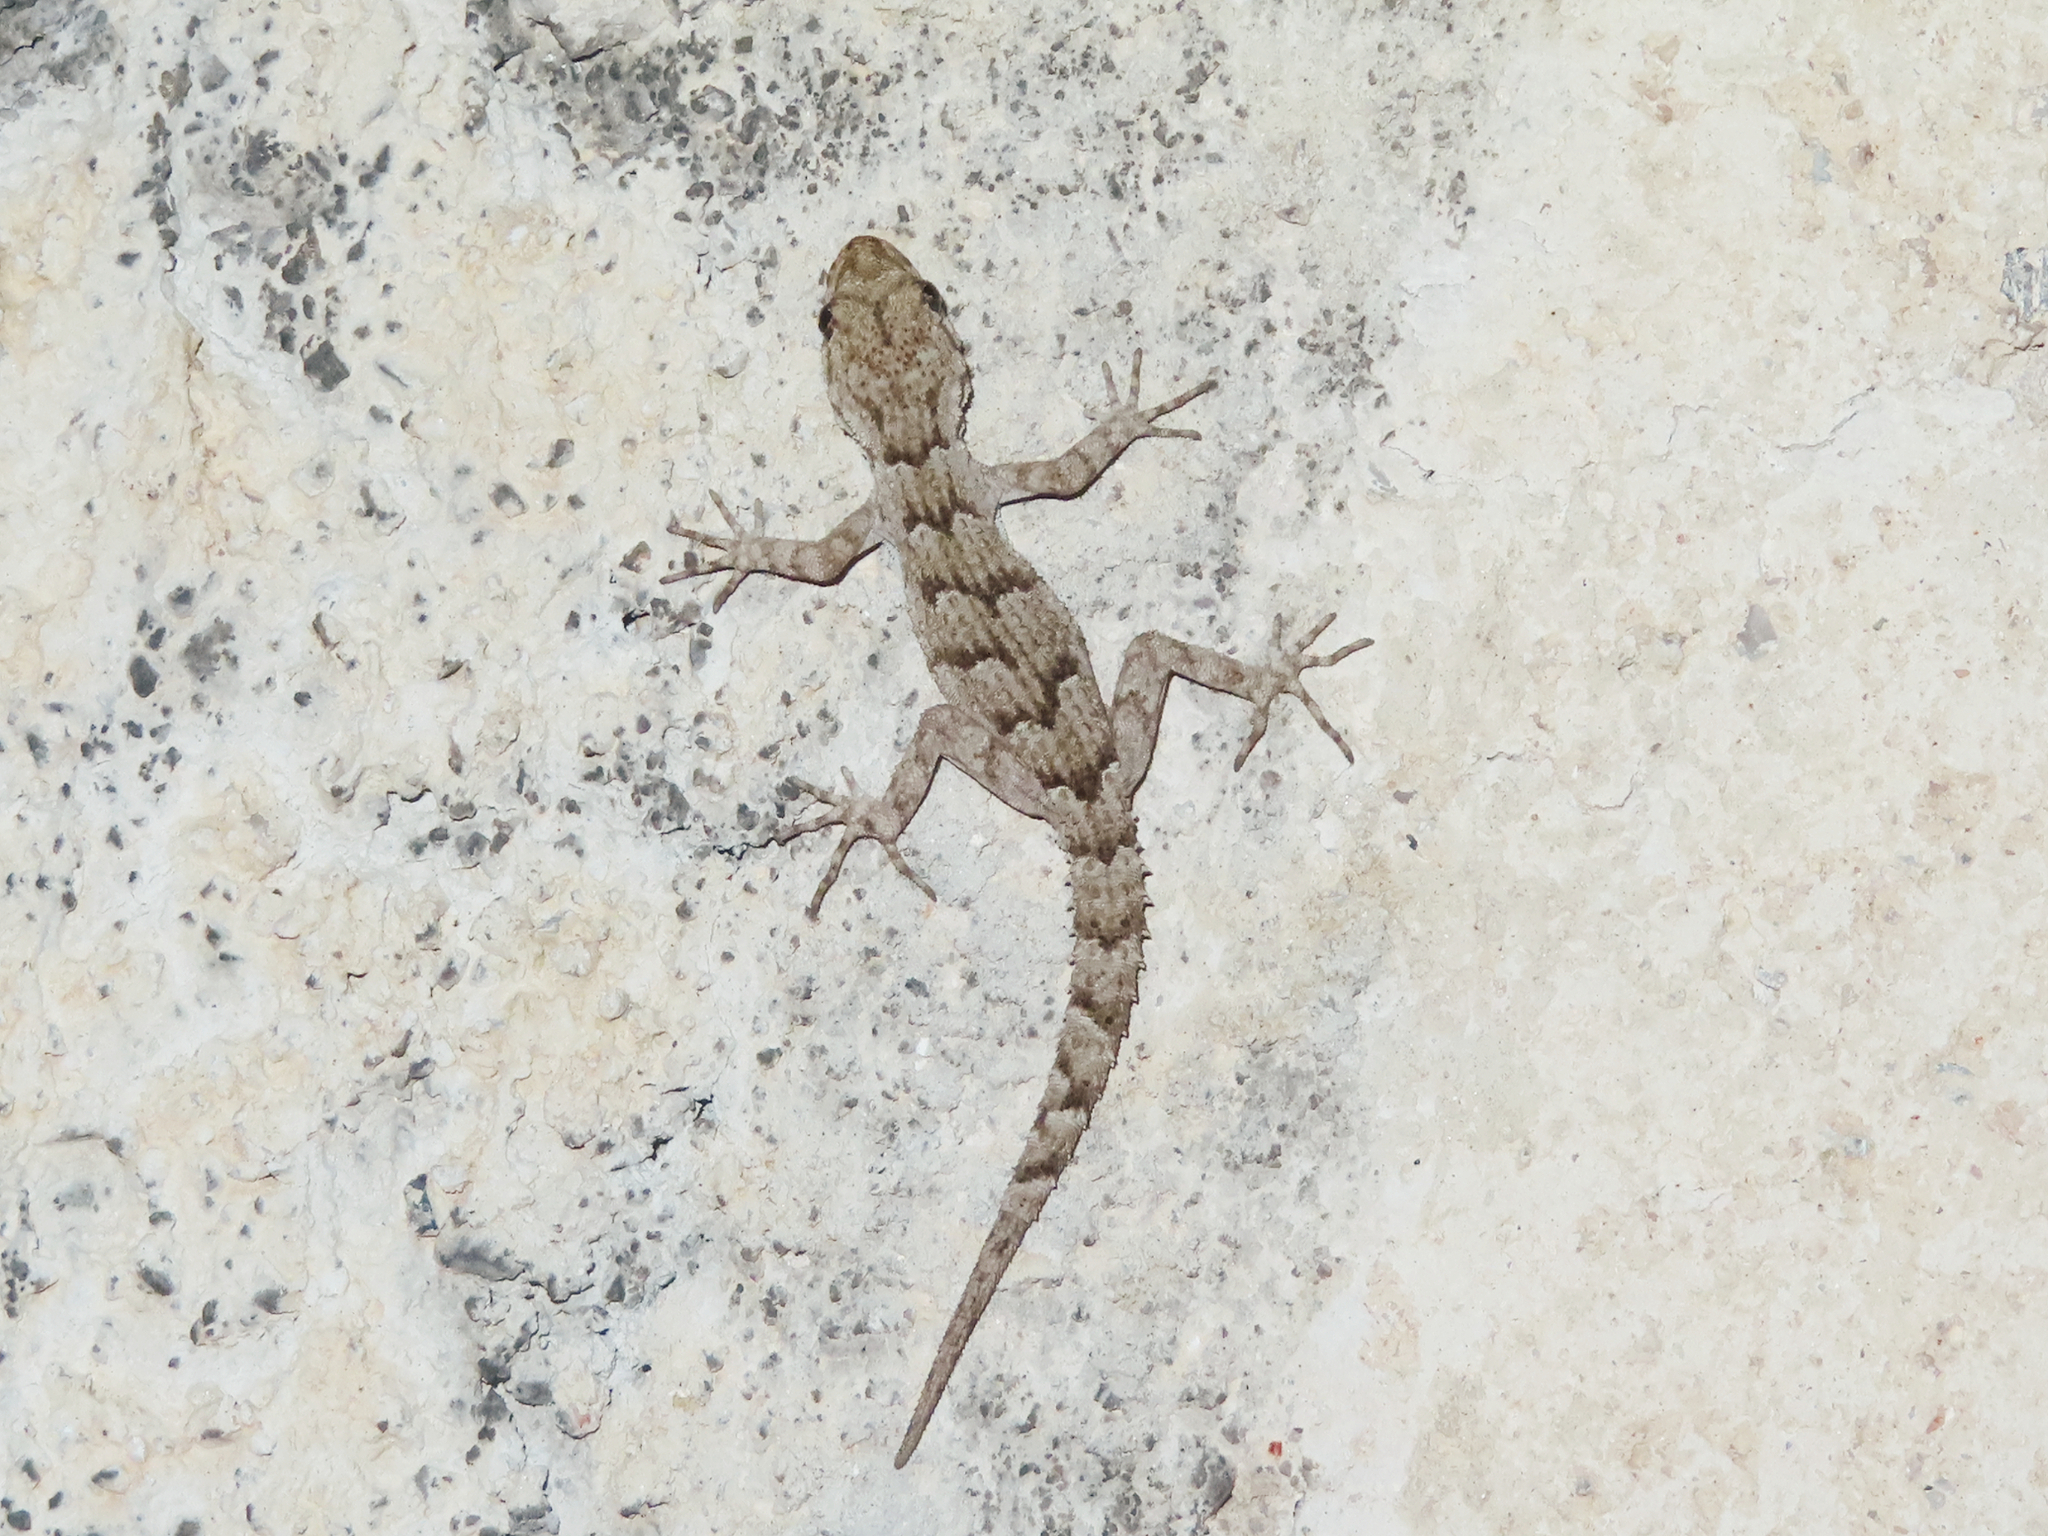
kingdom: Animalia
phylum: Chordata
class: Squamata
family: Gekkonidae
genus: Mediodactylus
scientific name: Mediodactylus kotschyi
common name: Kotschy's gecko
